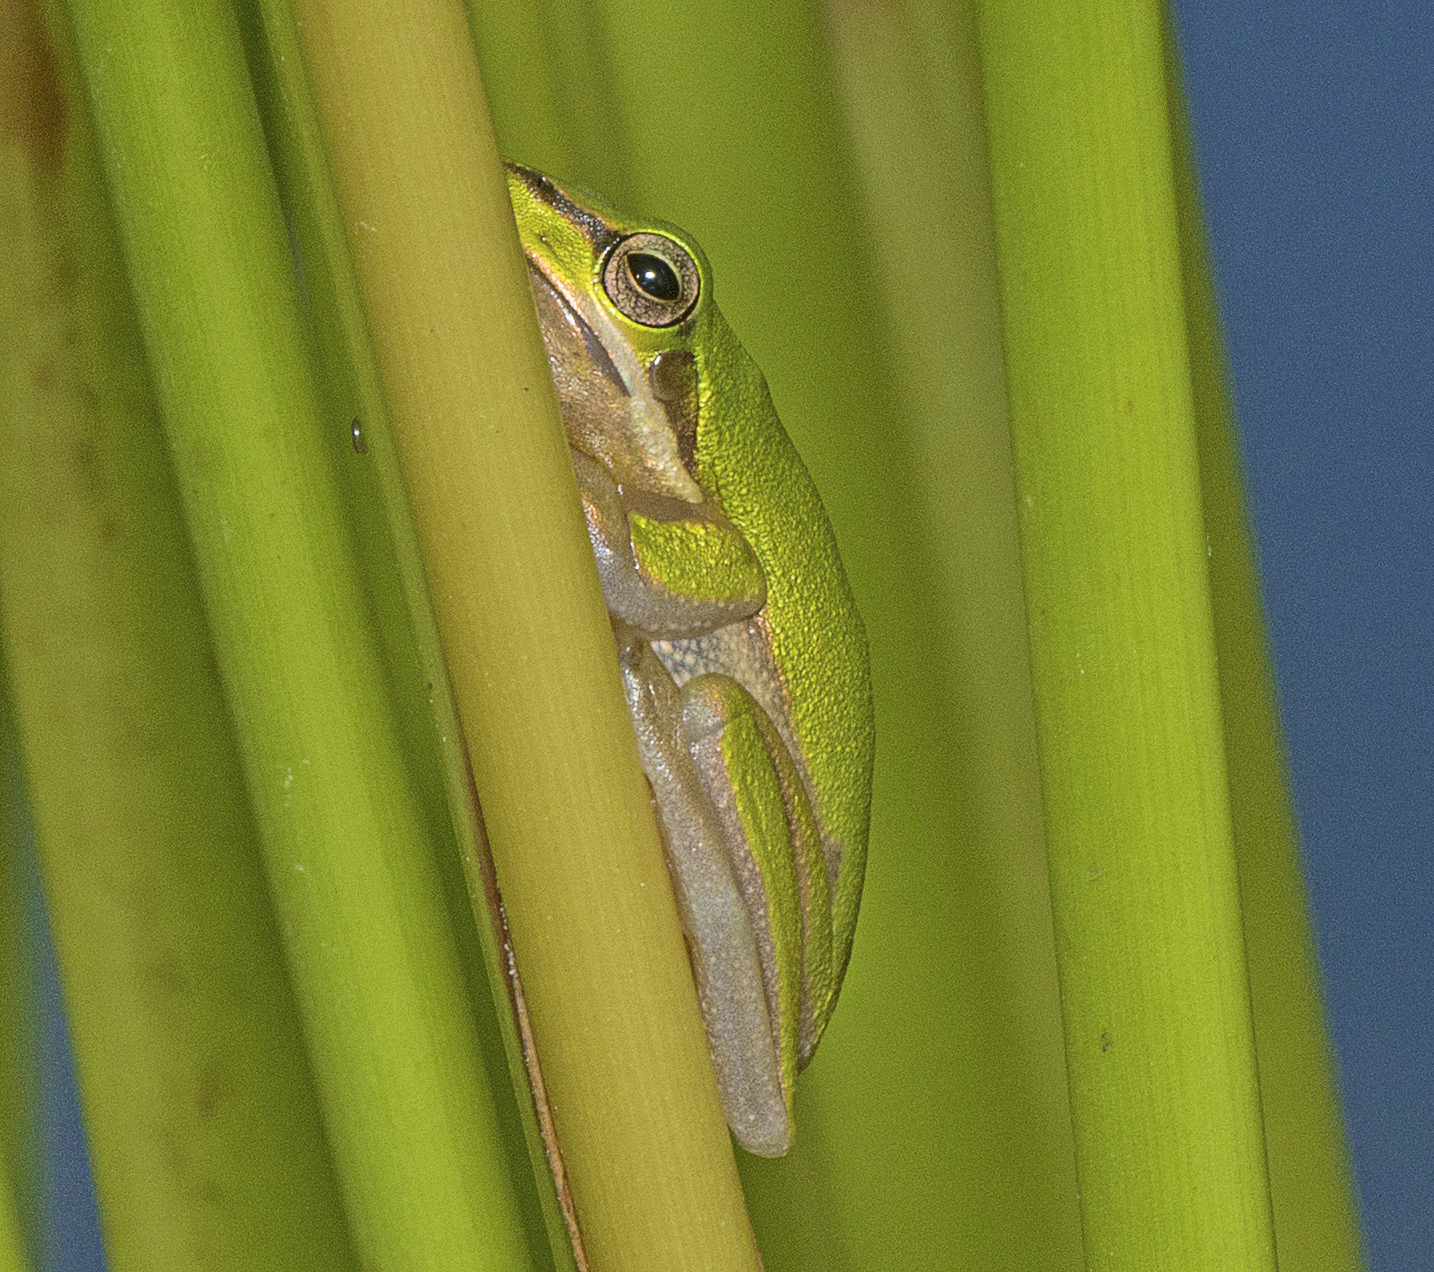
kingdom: Animalia
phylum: Chordata
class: Amphibia
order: Anura
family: Pelodryadidae
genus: Litoria
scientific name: Litoria fallax
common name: Eastern dwarf treefrog
